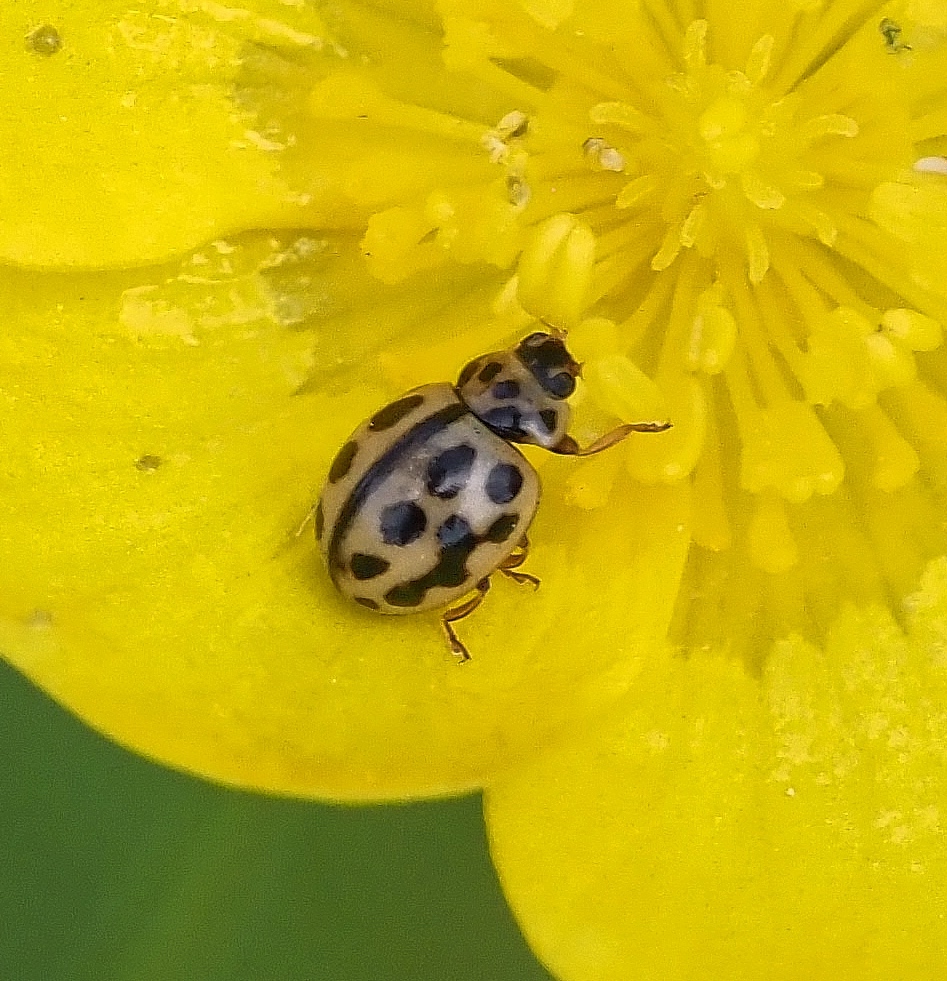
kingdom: Animalia
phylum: Arthropoda
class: Insecta
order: Coleoptera
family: Coccinellidae
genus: Tytthaspis
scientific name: Tytthaspis sedecimpunctata
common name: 16-spot ladybird
